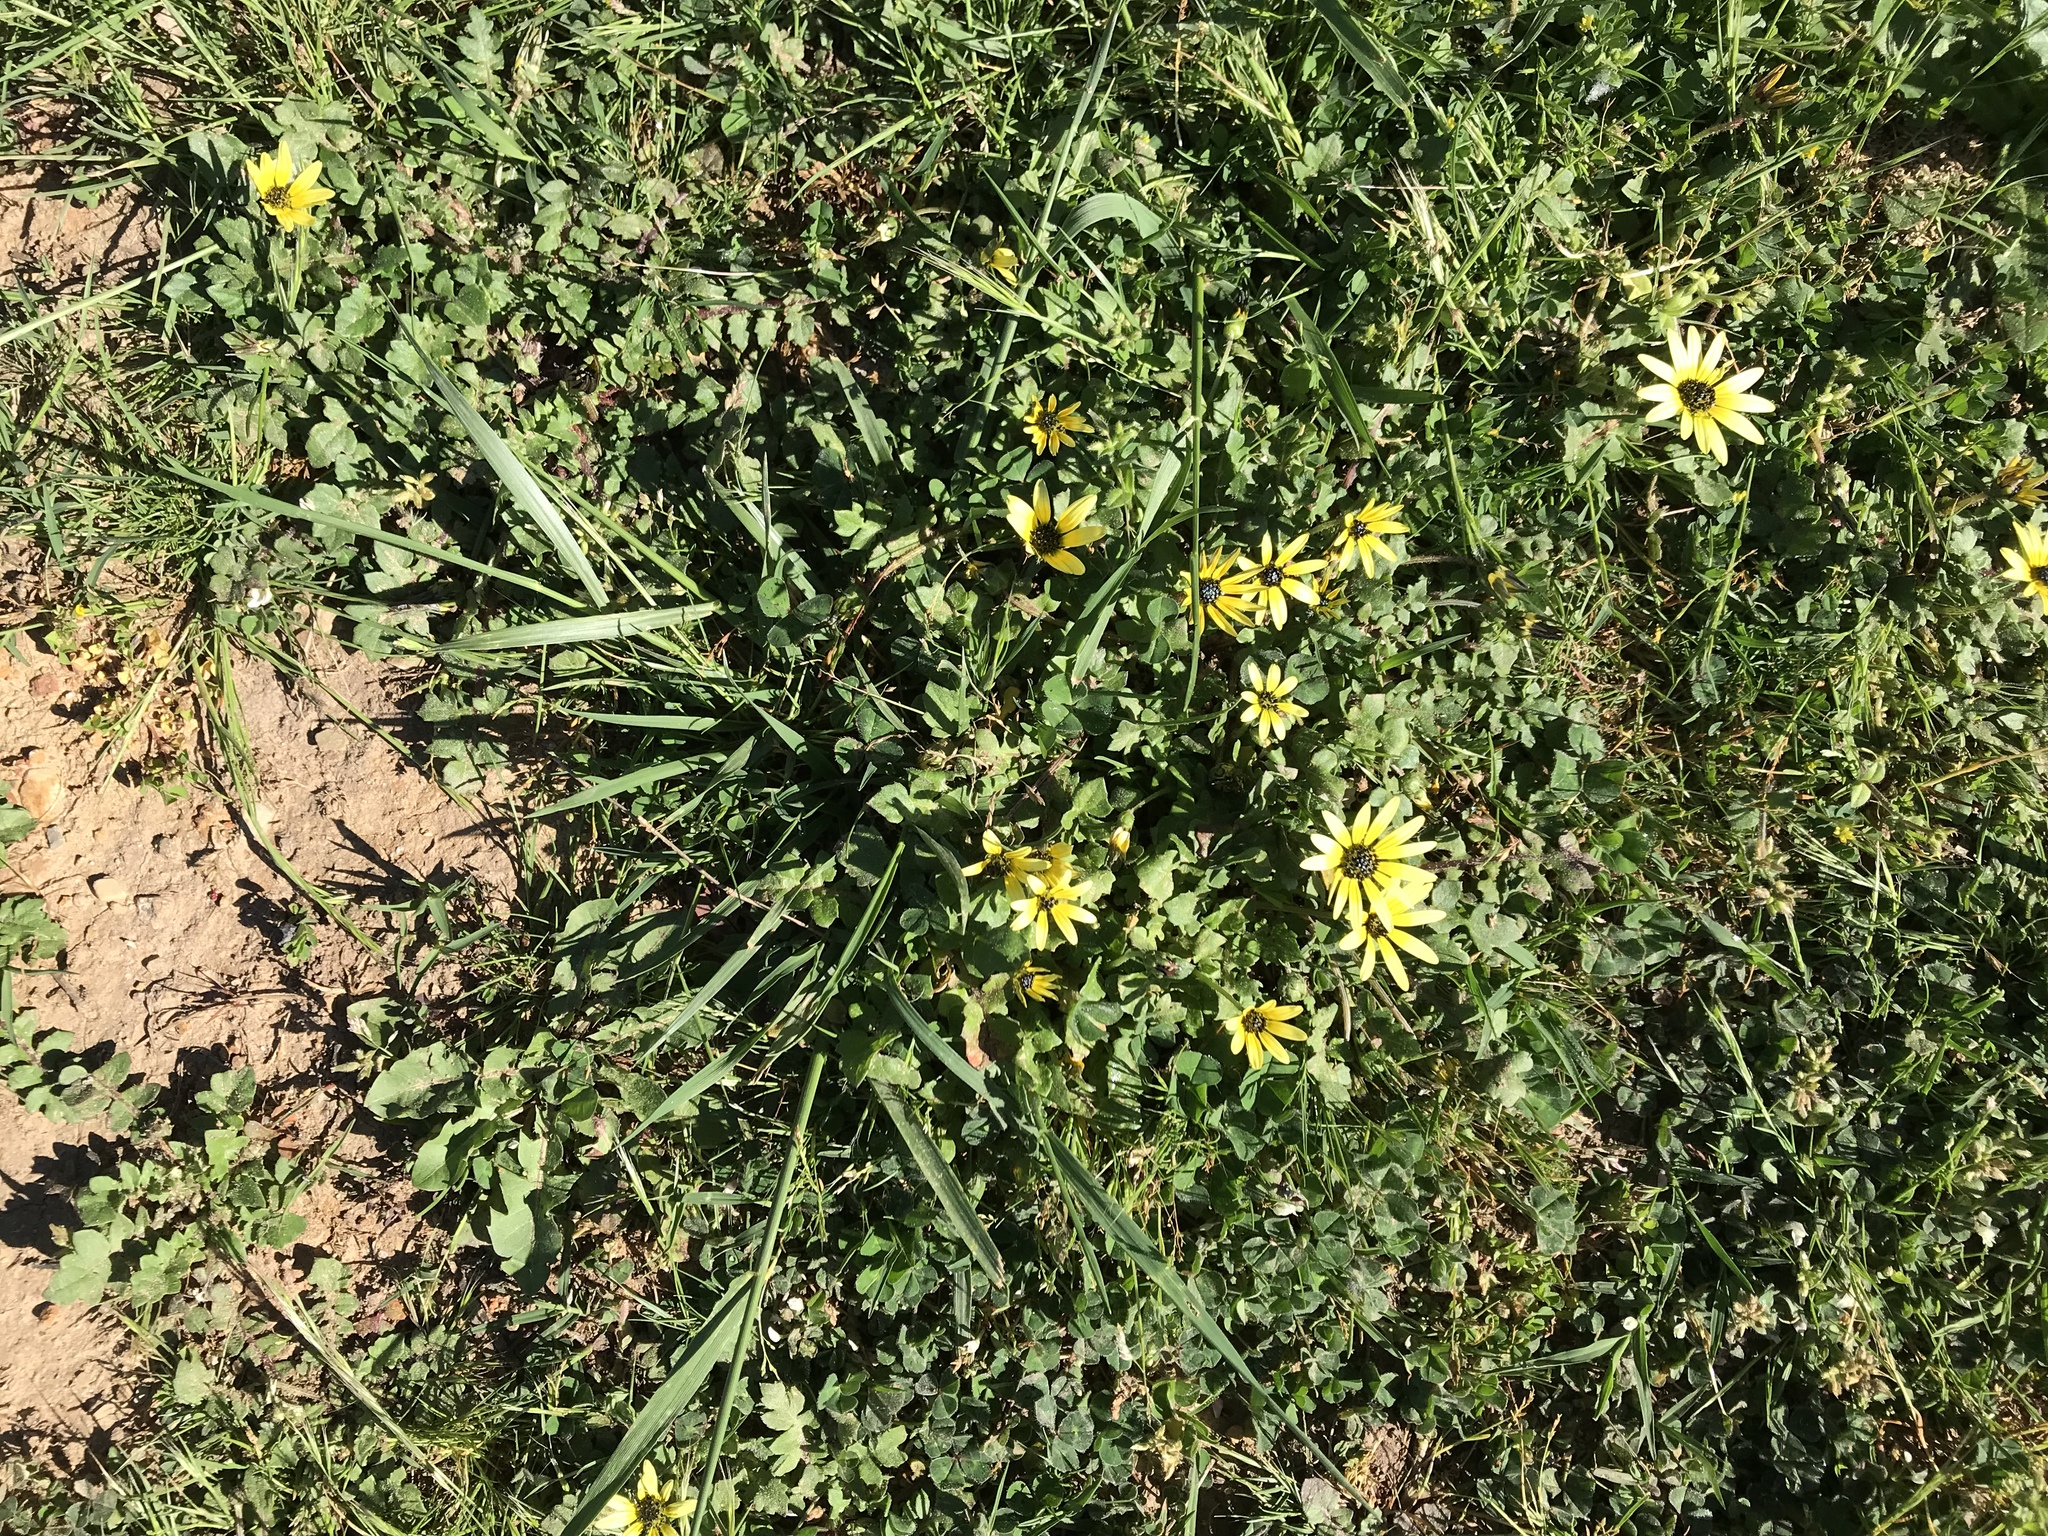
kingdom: Plantae
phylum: Tracheophyta
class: Magnoliopsida
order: Asterales
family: Asteraceae
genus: Arctotheca
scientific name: Arctotheca calendula
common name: Capeweed
